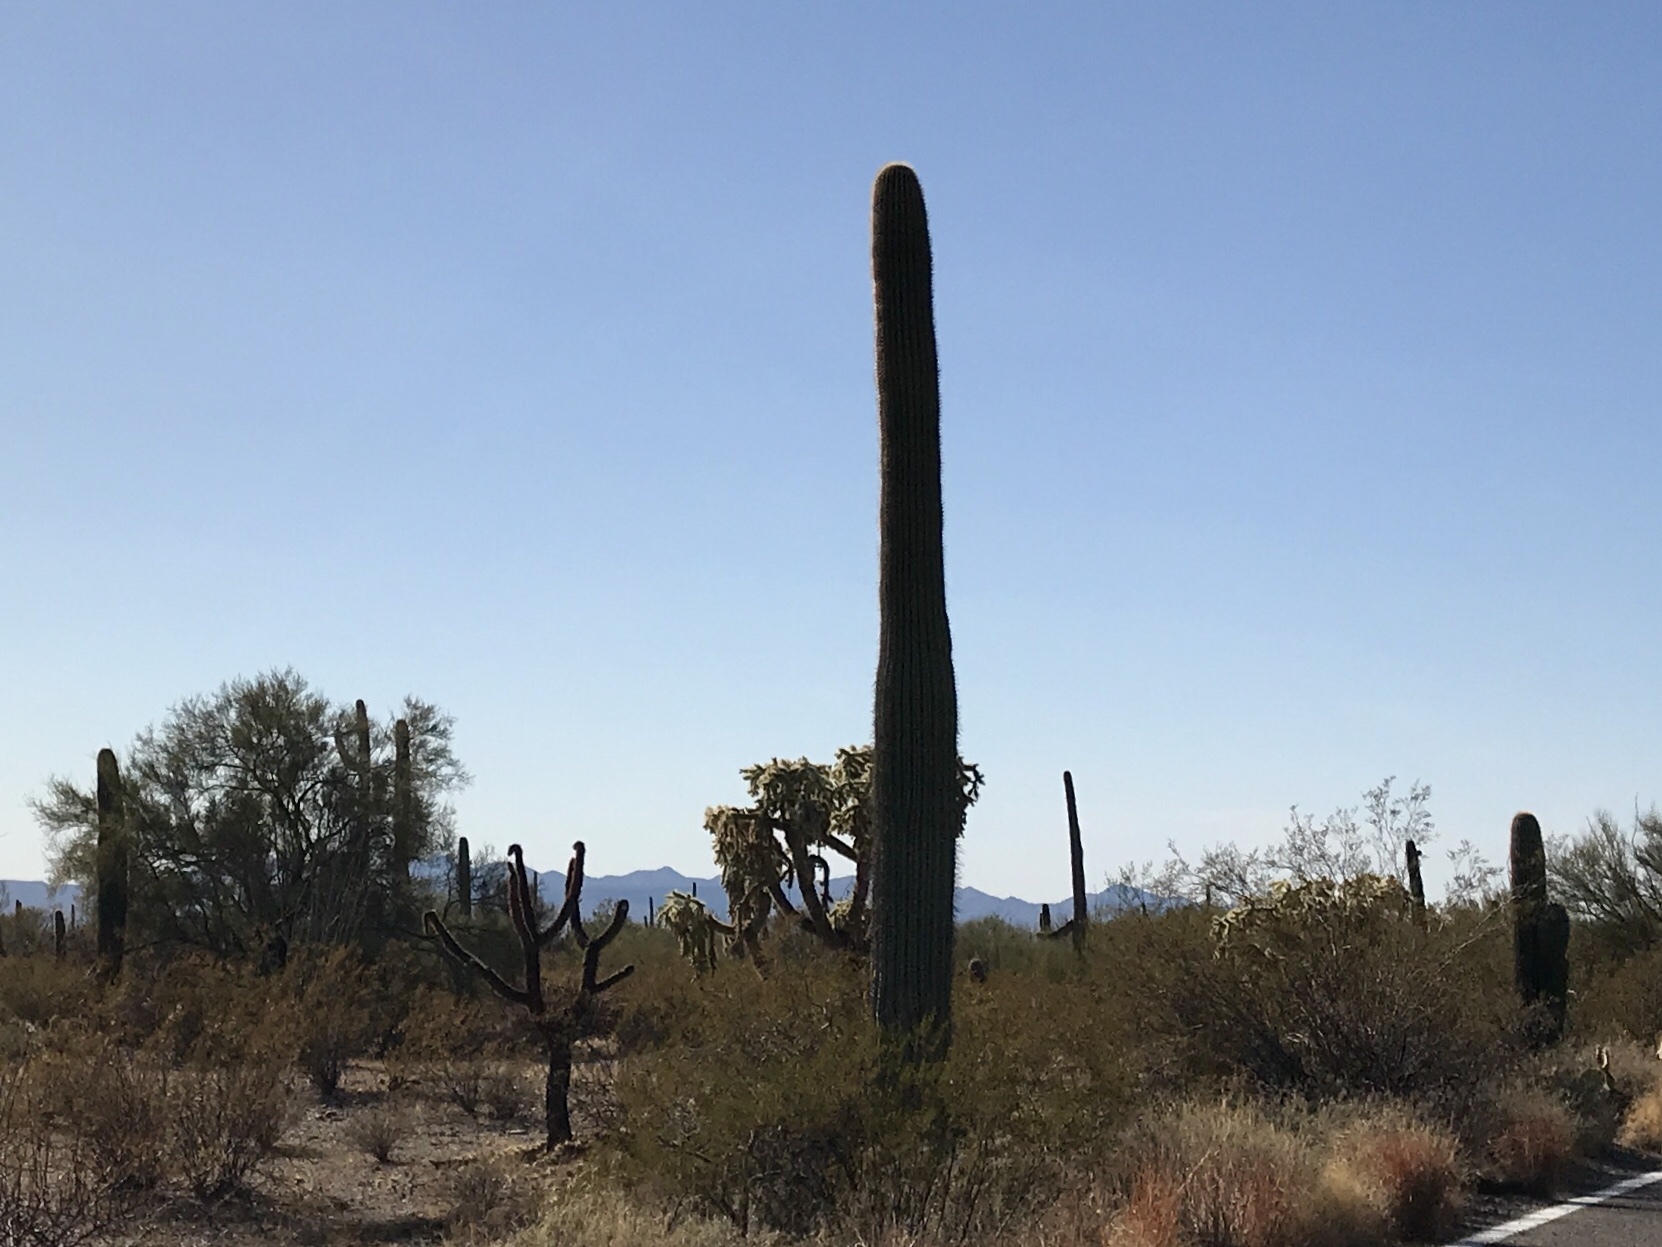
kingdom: Plantae
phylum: Tracheophyta
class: Magnoliopsida
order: Caryophyllales
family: Cactaceae
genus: Carnegiea
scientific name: Carnegiea gigantea
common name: Saguaro
